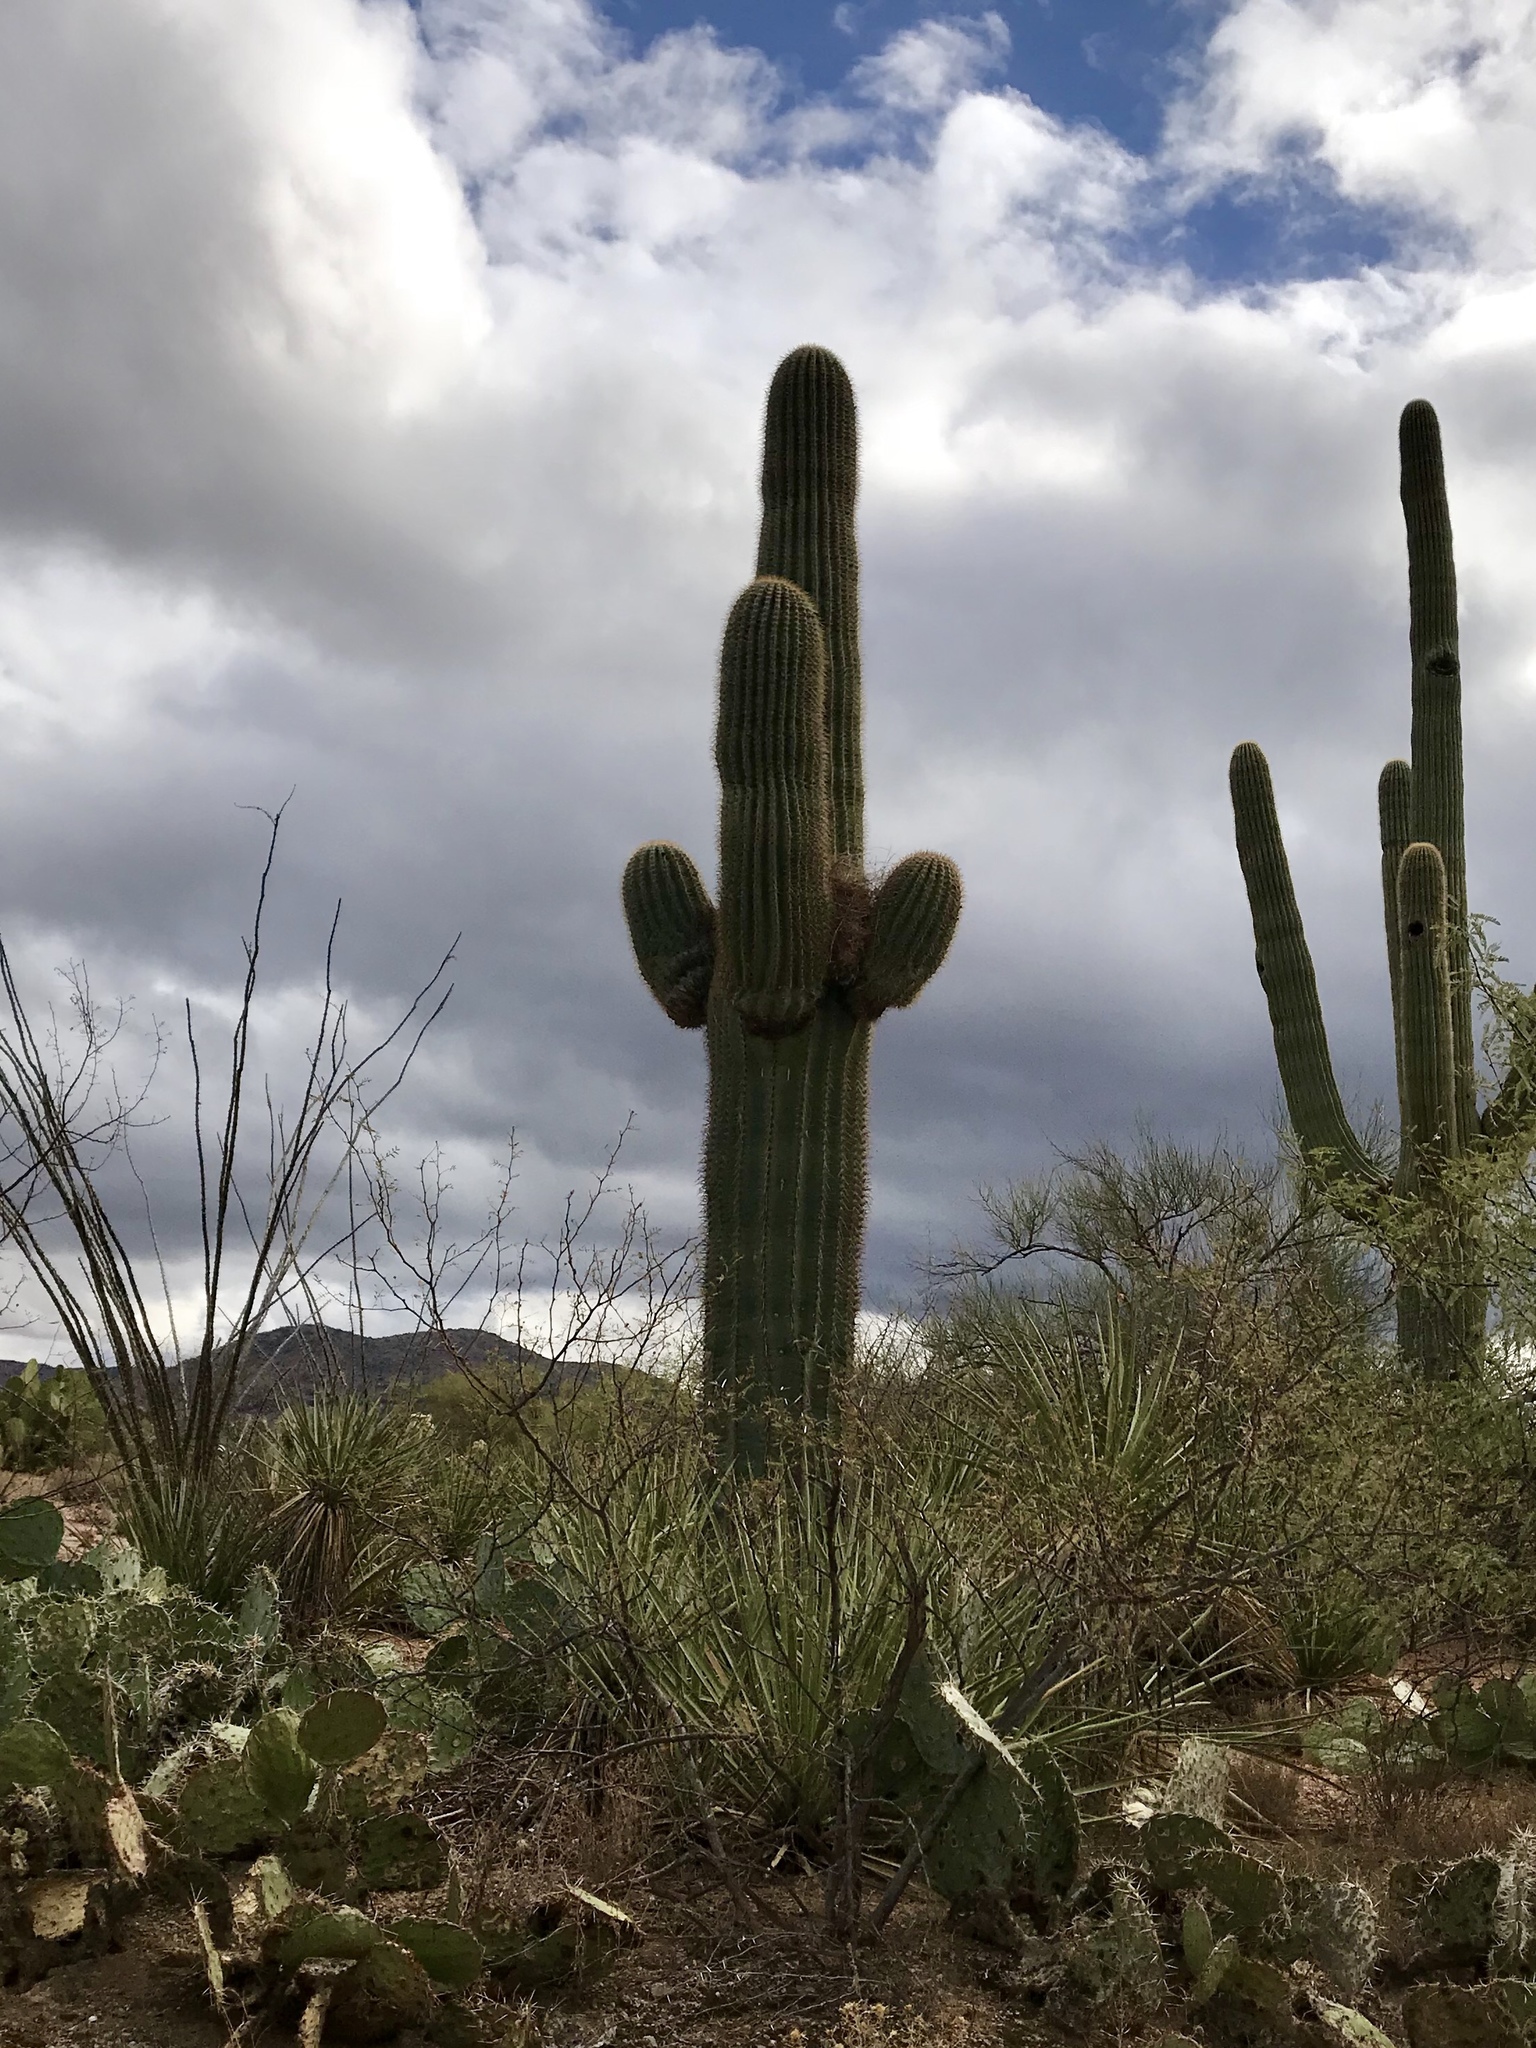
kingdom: Plantae
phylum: Tracheophyta
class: Magnoliopsida
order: Caryophyllales
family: Cactaceae
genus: Carnegiea
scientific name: Carnegiea gigantea
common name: Saguaro
